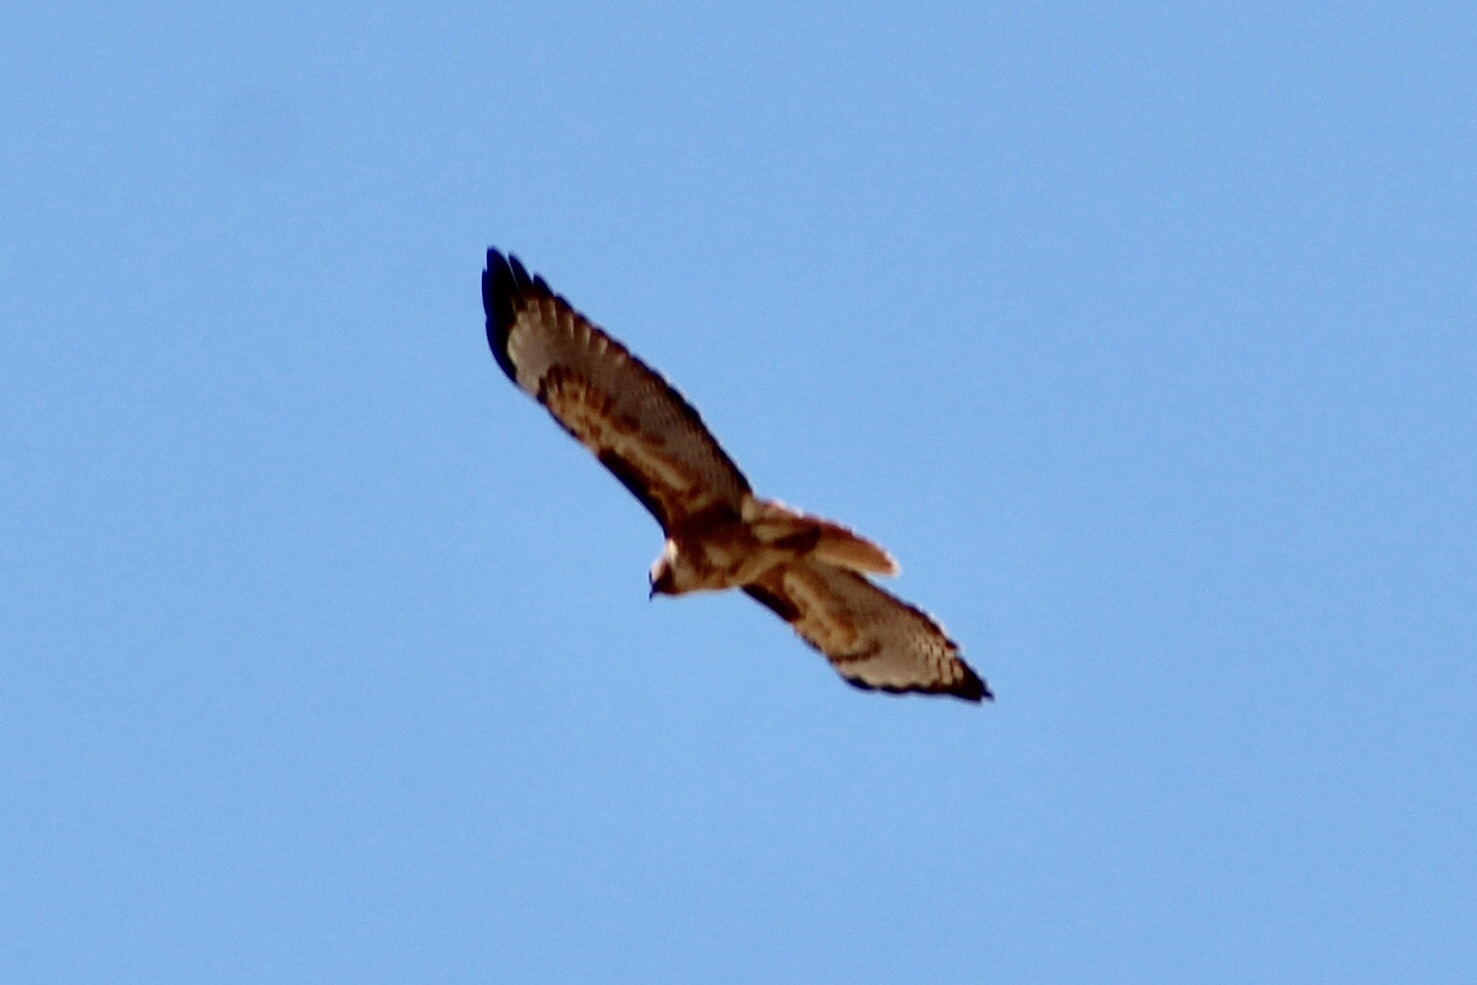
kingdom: Animalia
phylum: Chordata
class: Aves
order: Accipitriformes
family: Accipitridae
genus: Buteo
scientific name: Buteo jamaicensis
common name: Red-tailed hawk
